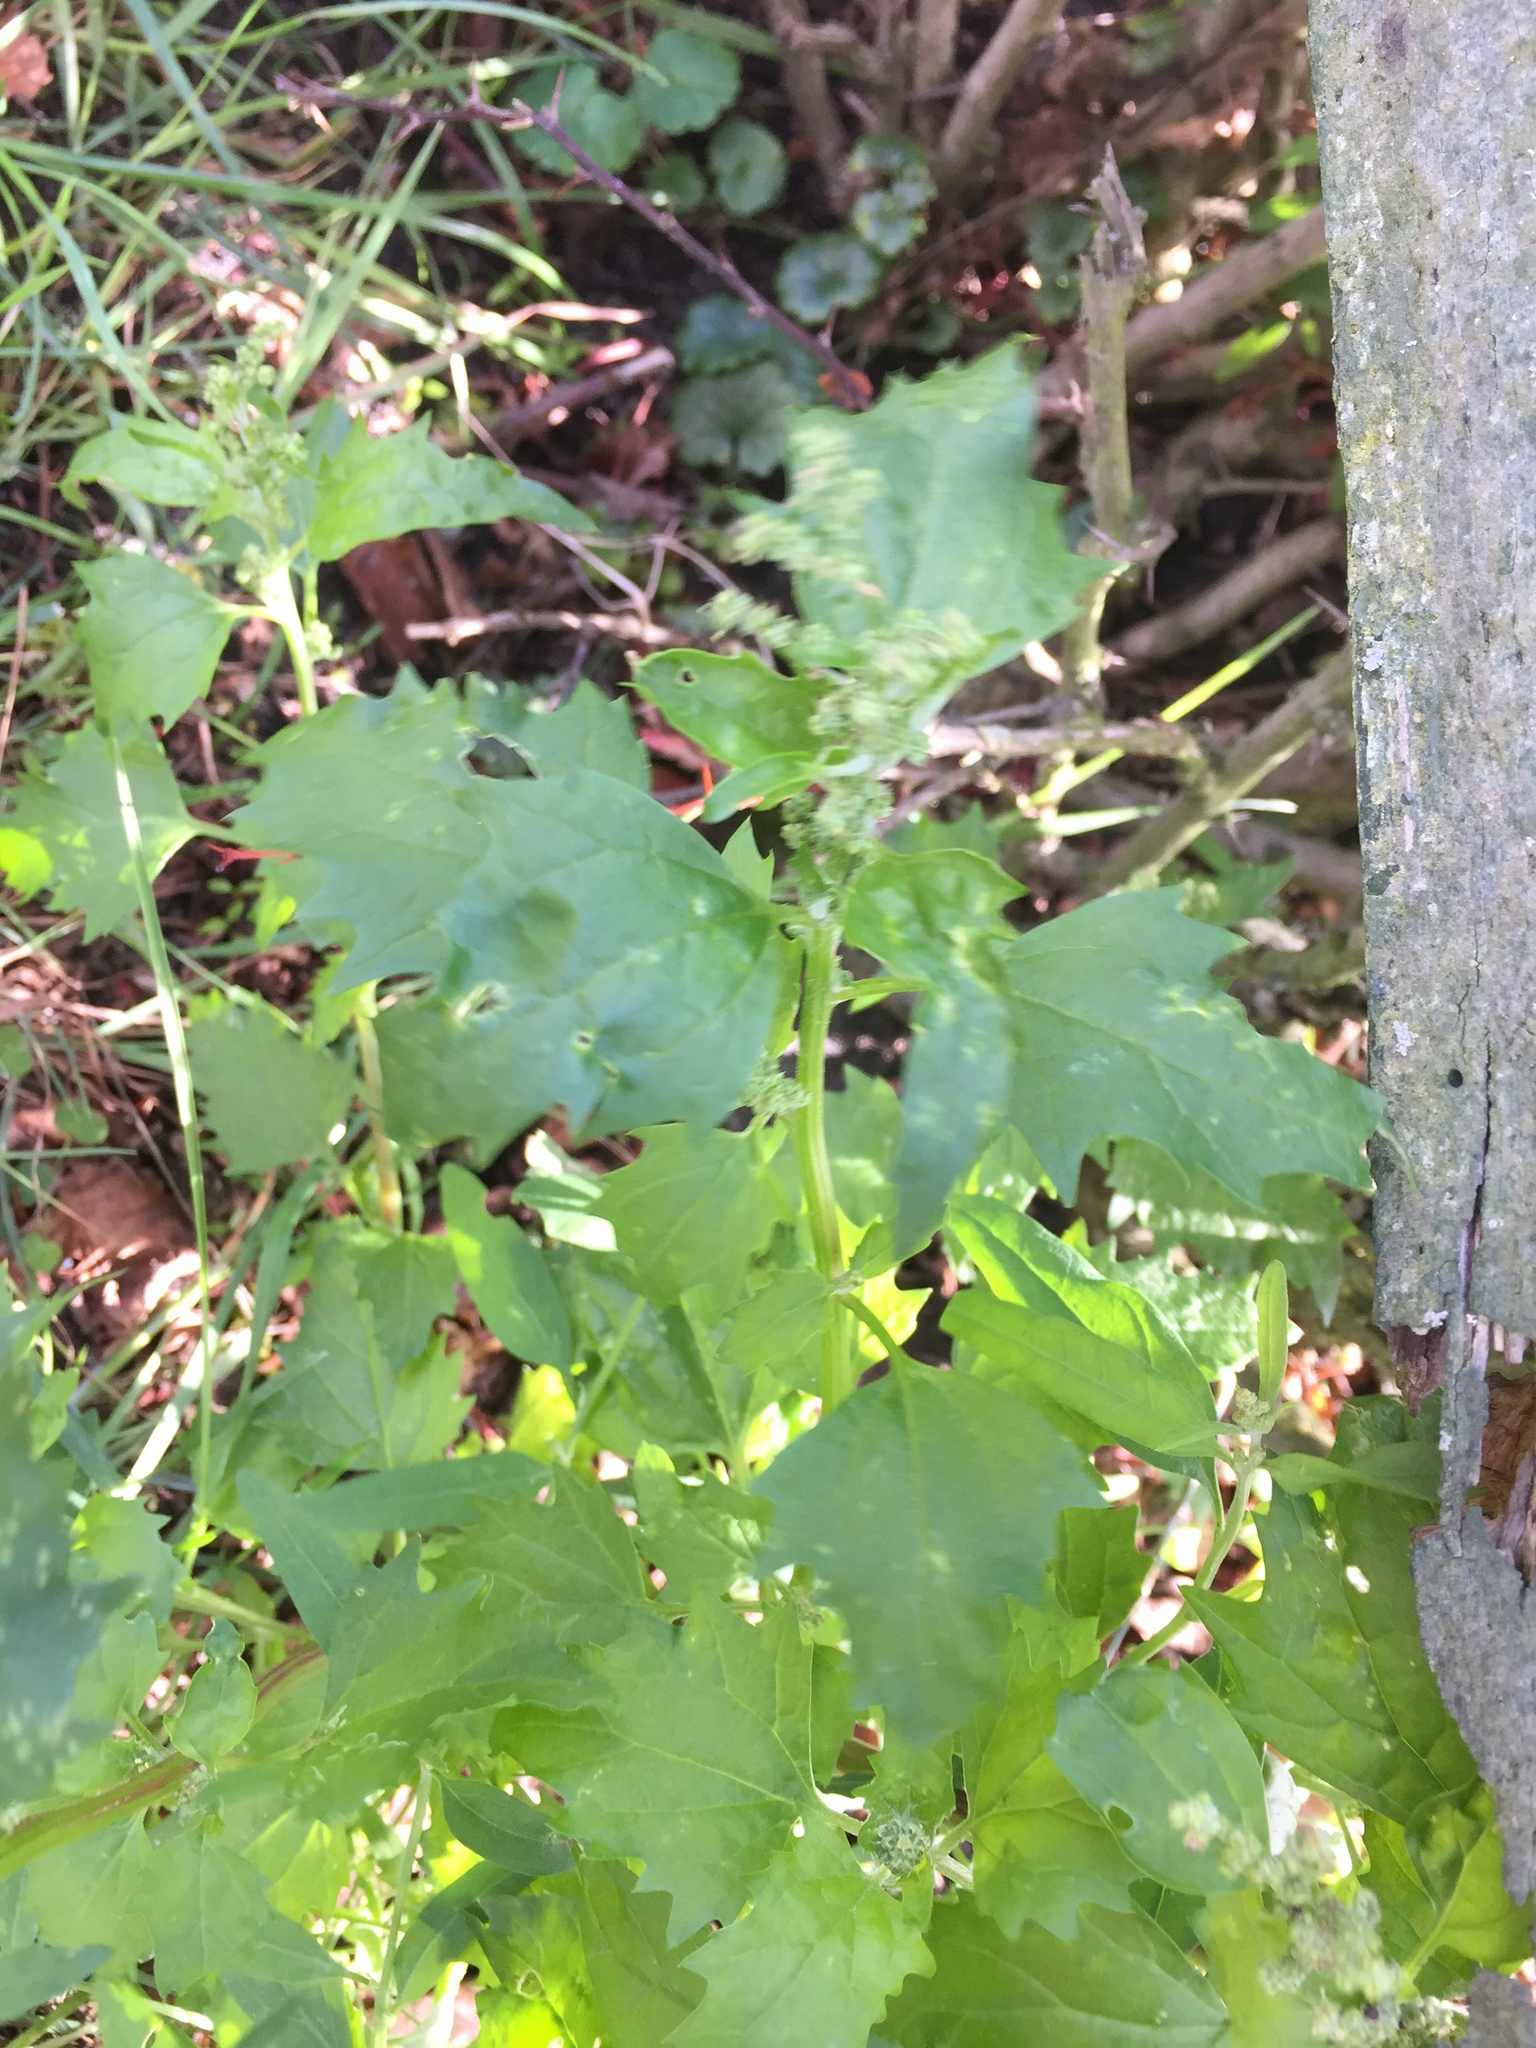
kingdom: Plantae
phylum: Tracheophyta
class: Magnoliopsida
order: Caryophyllales
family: Amaranthaceae
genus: Chenopodiastrum
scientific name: Chenopodiastrum murale
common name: Sowbane
